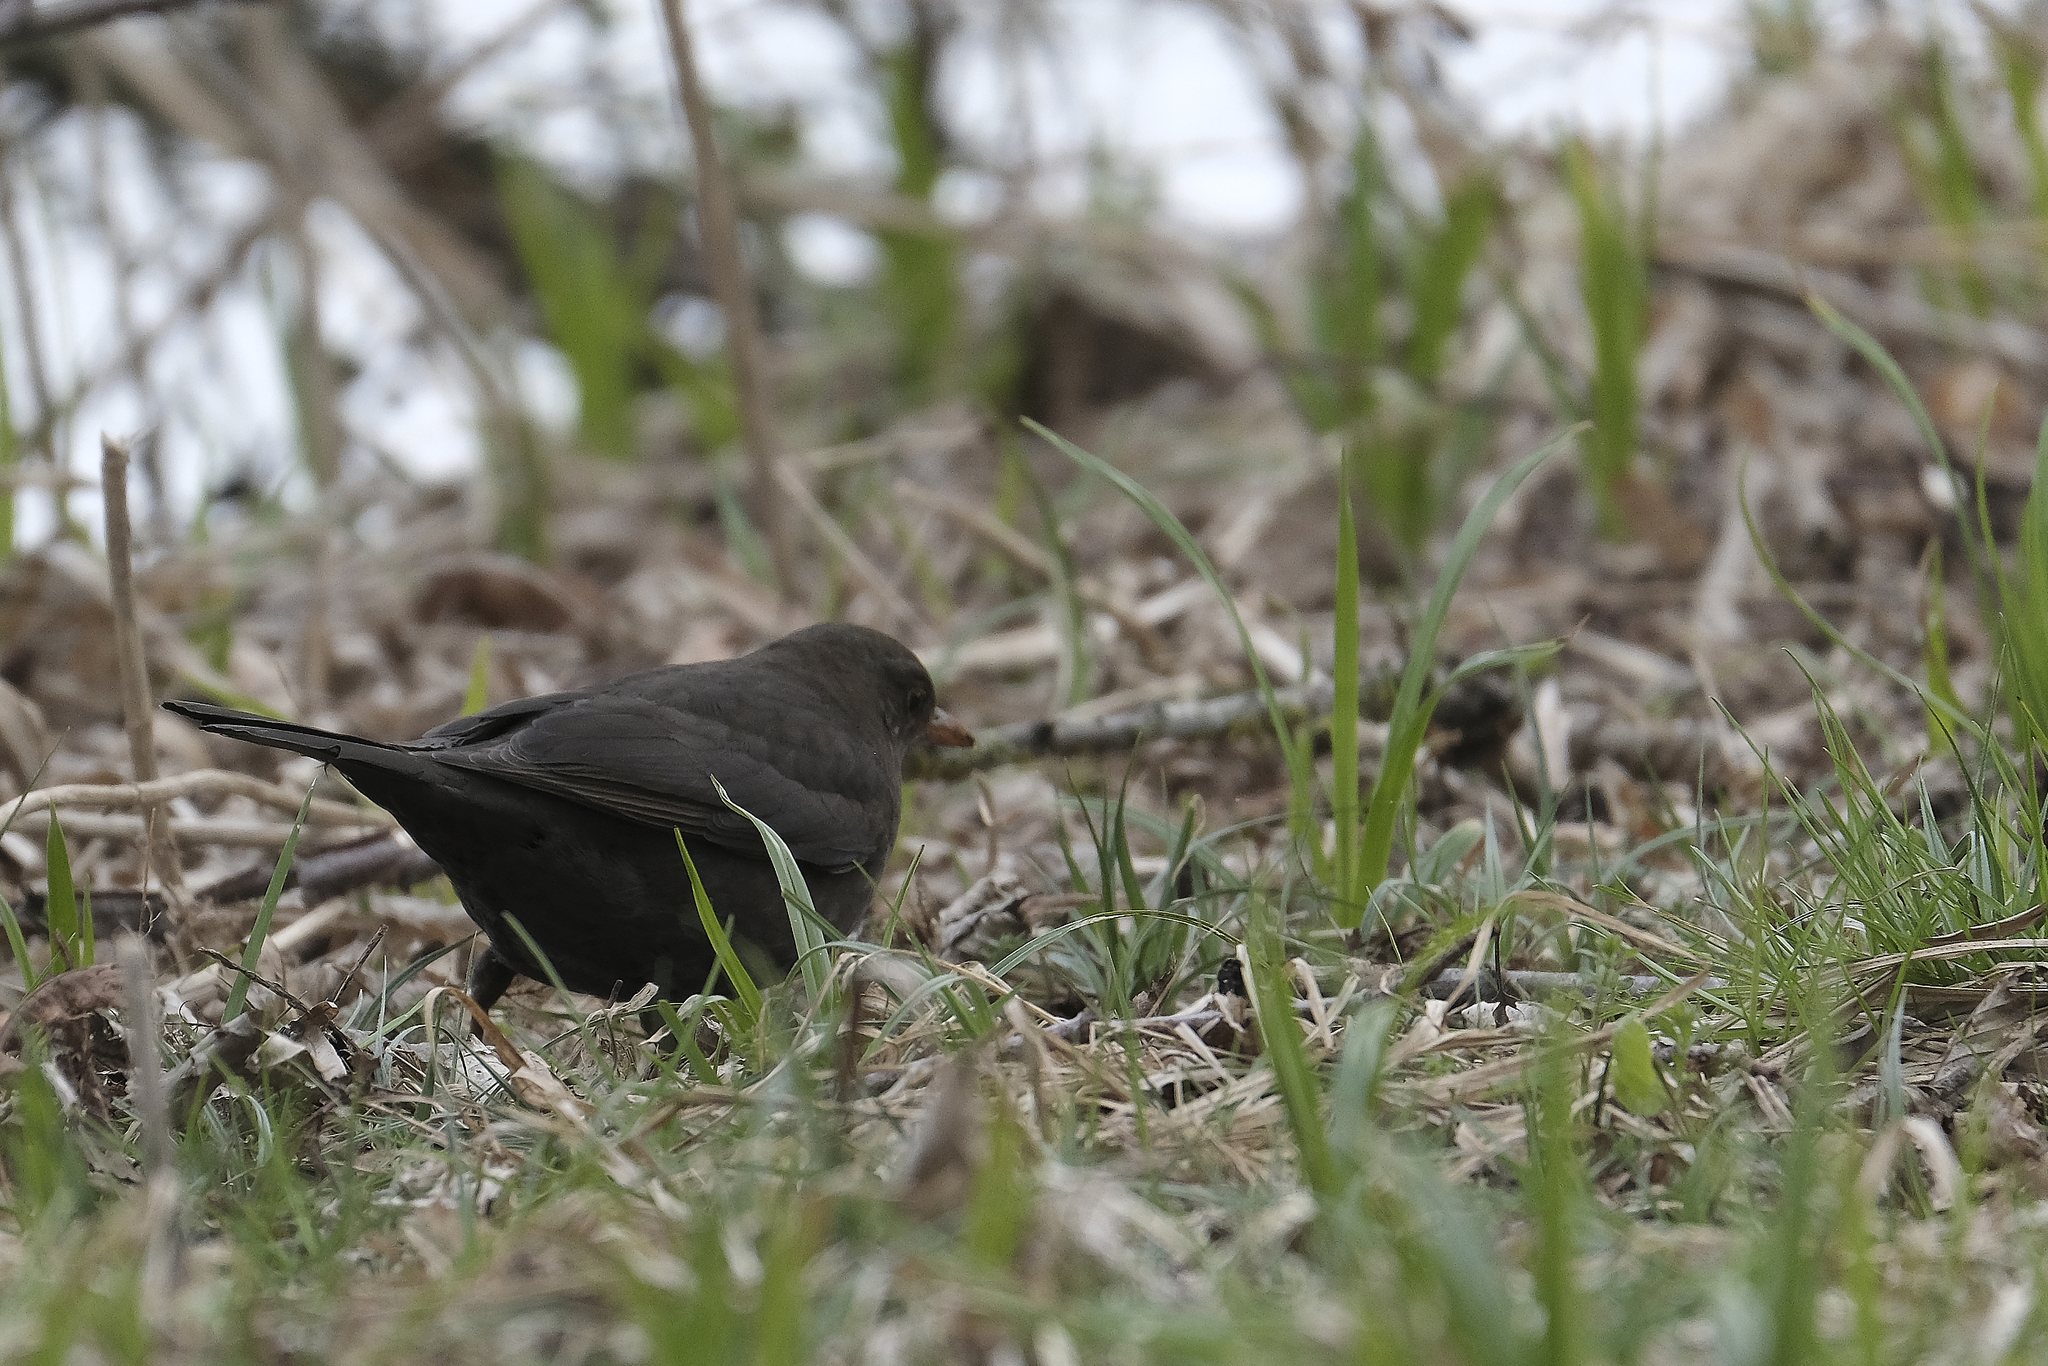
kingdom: Animalia
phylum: Chordata
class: Aves
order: Passeriformes
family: Turdidae
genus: Turdus
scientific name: Turdus merula
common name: Common blackbird
